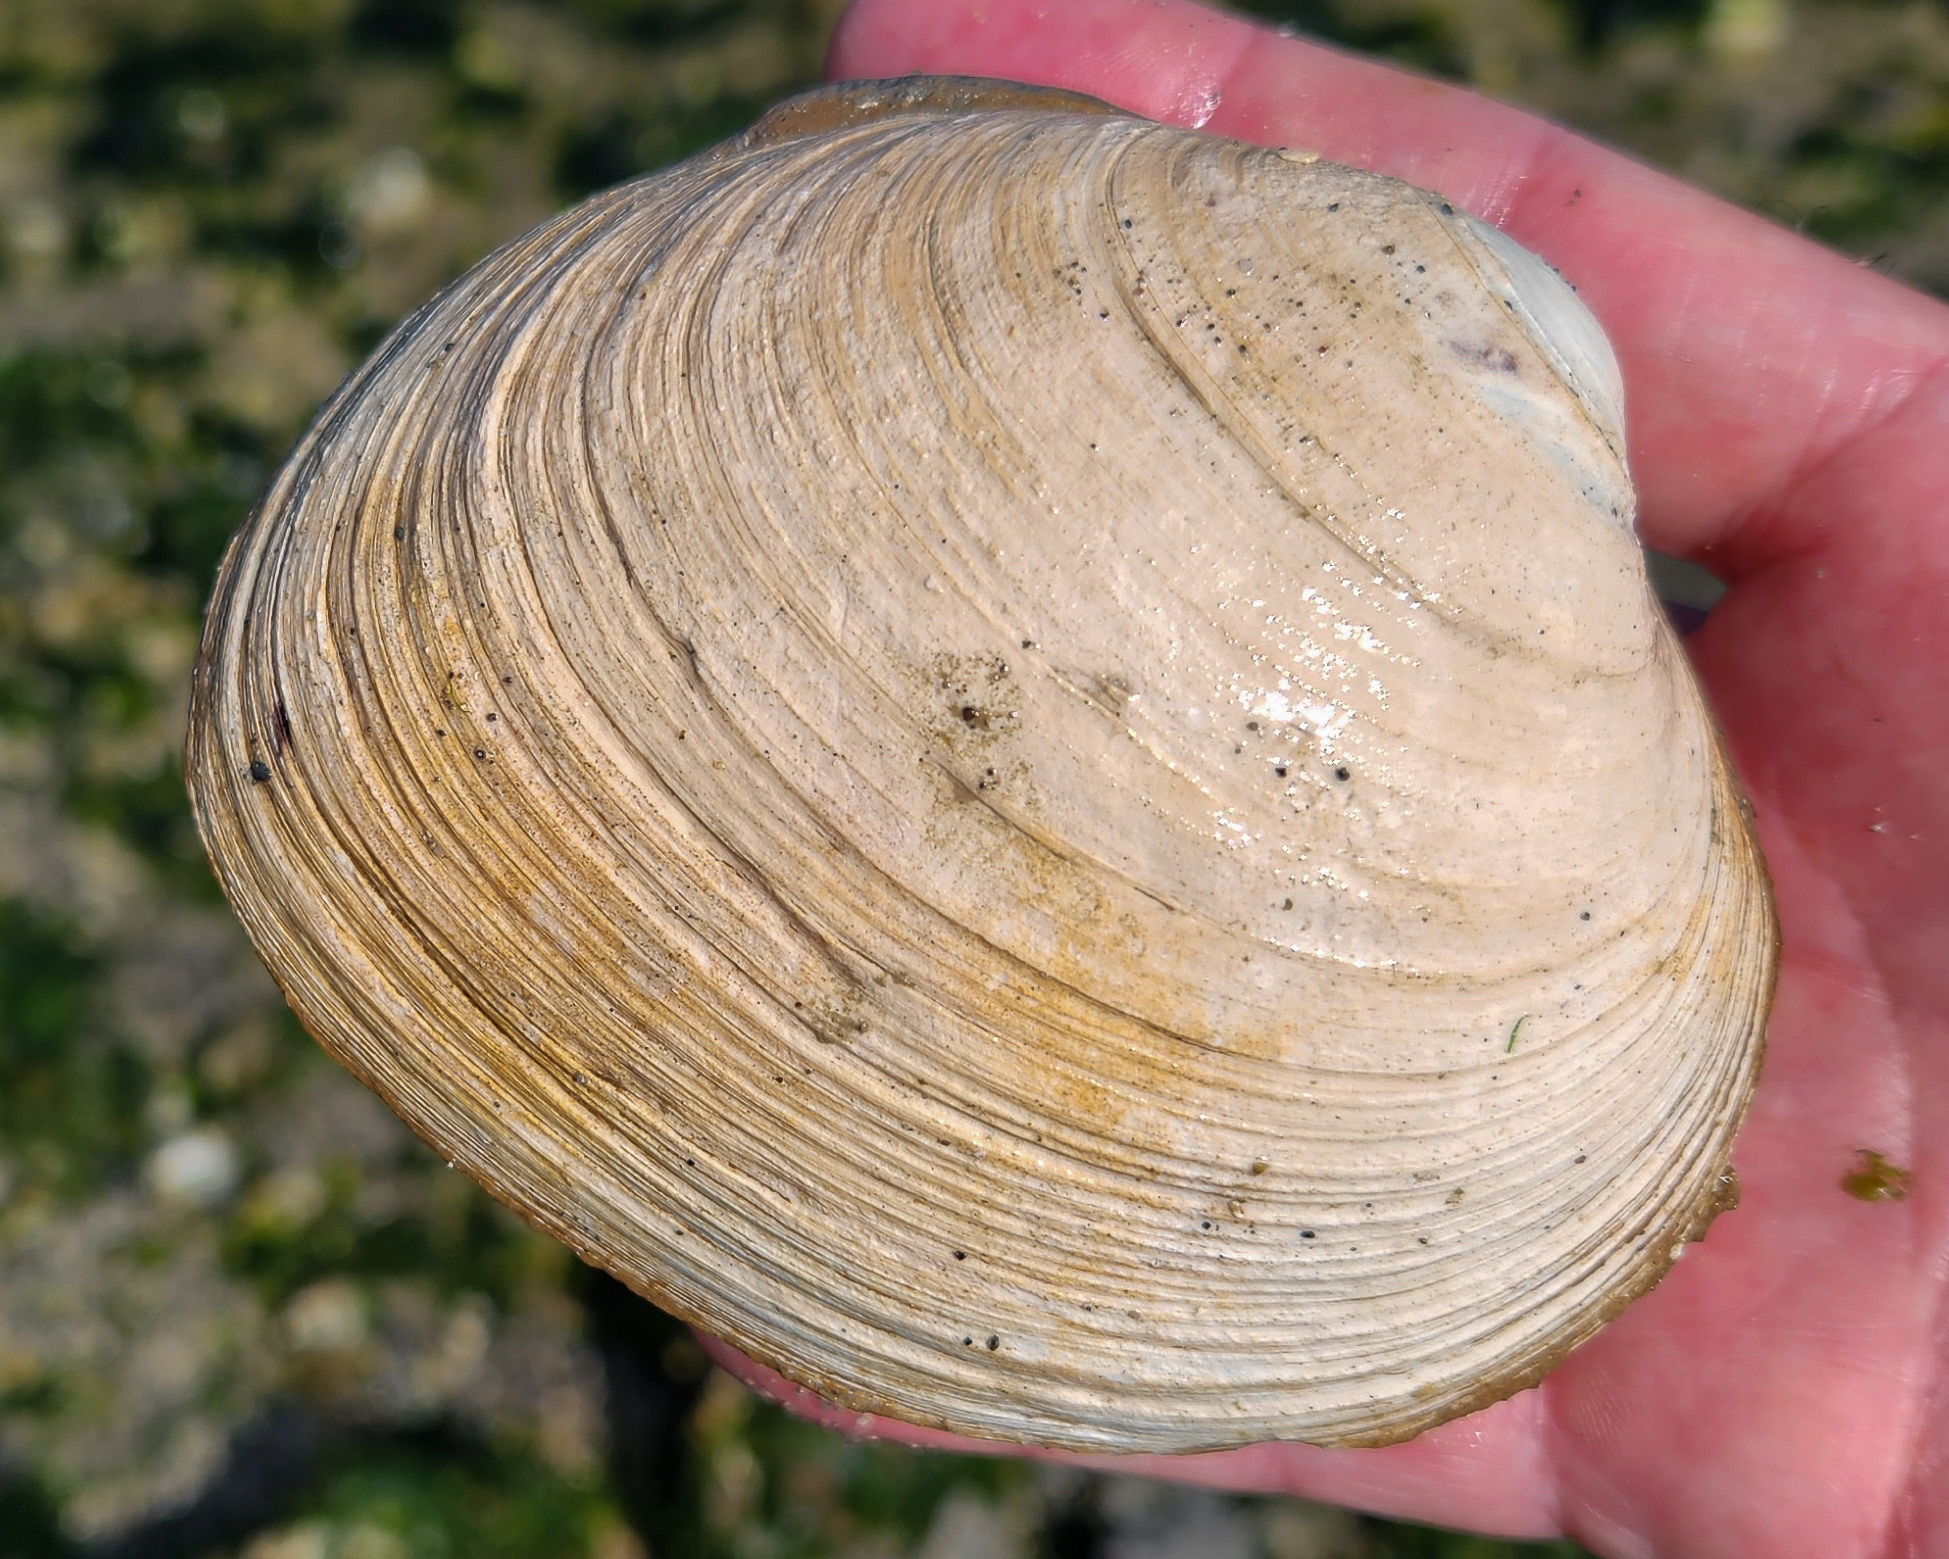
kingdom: Animalia
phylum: Mollusca
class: Bivalvia
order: Venerida
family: Veneridae
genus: Saxidomus
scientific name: Saxidomus gigantea
